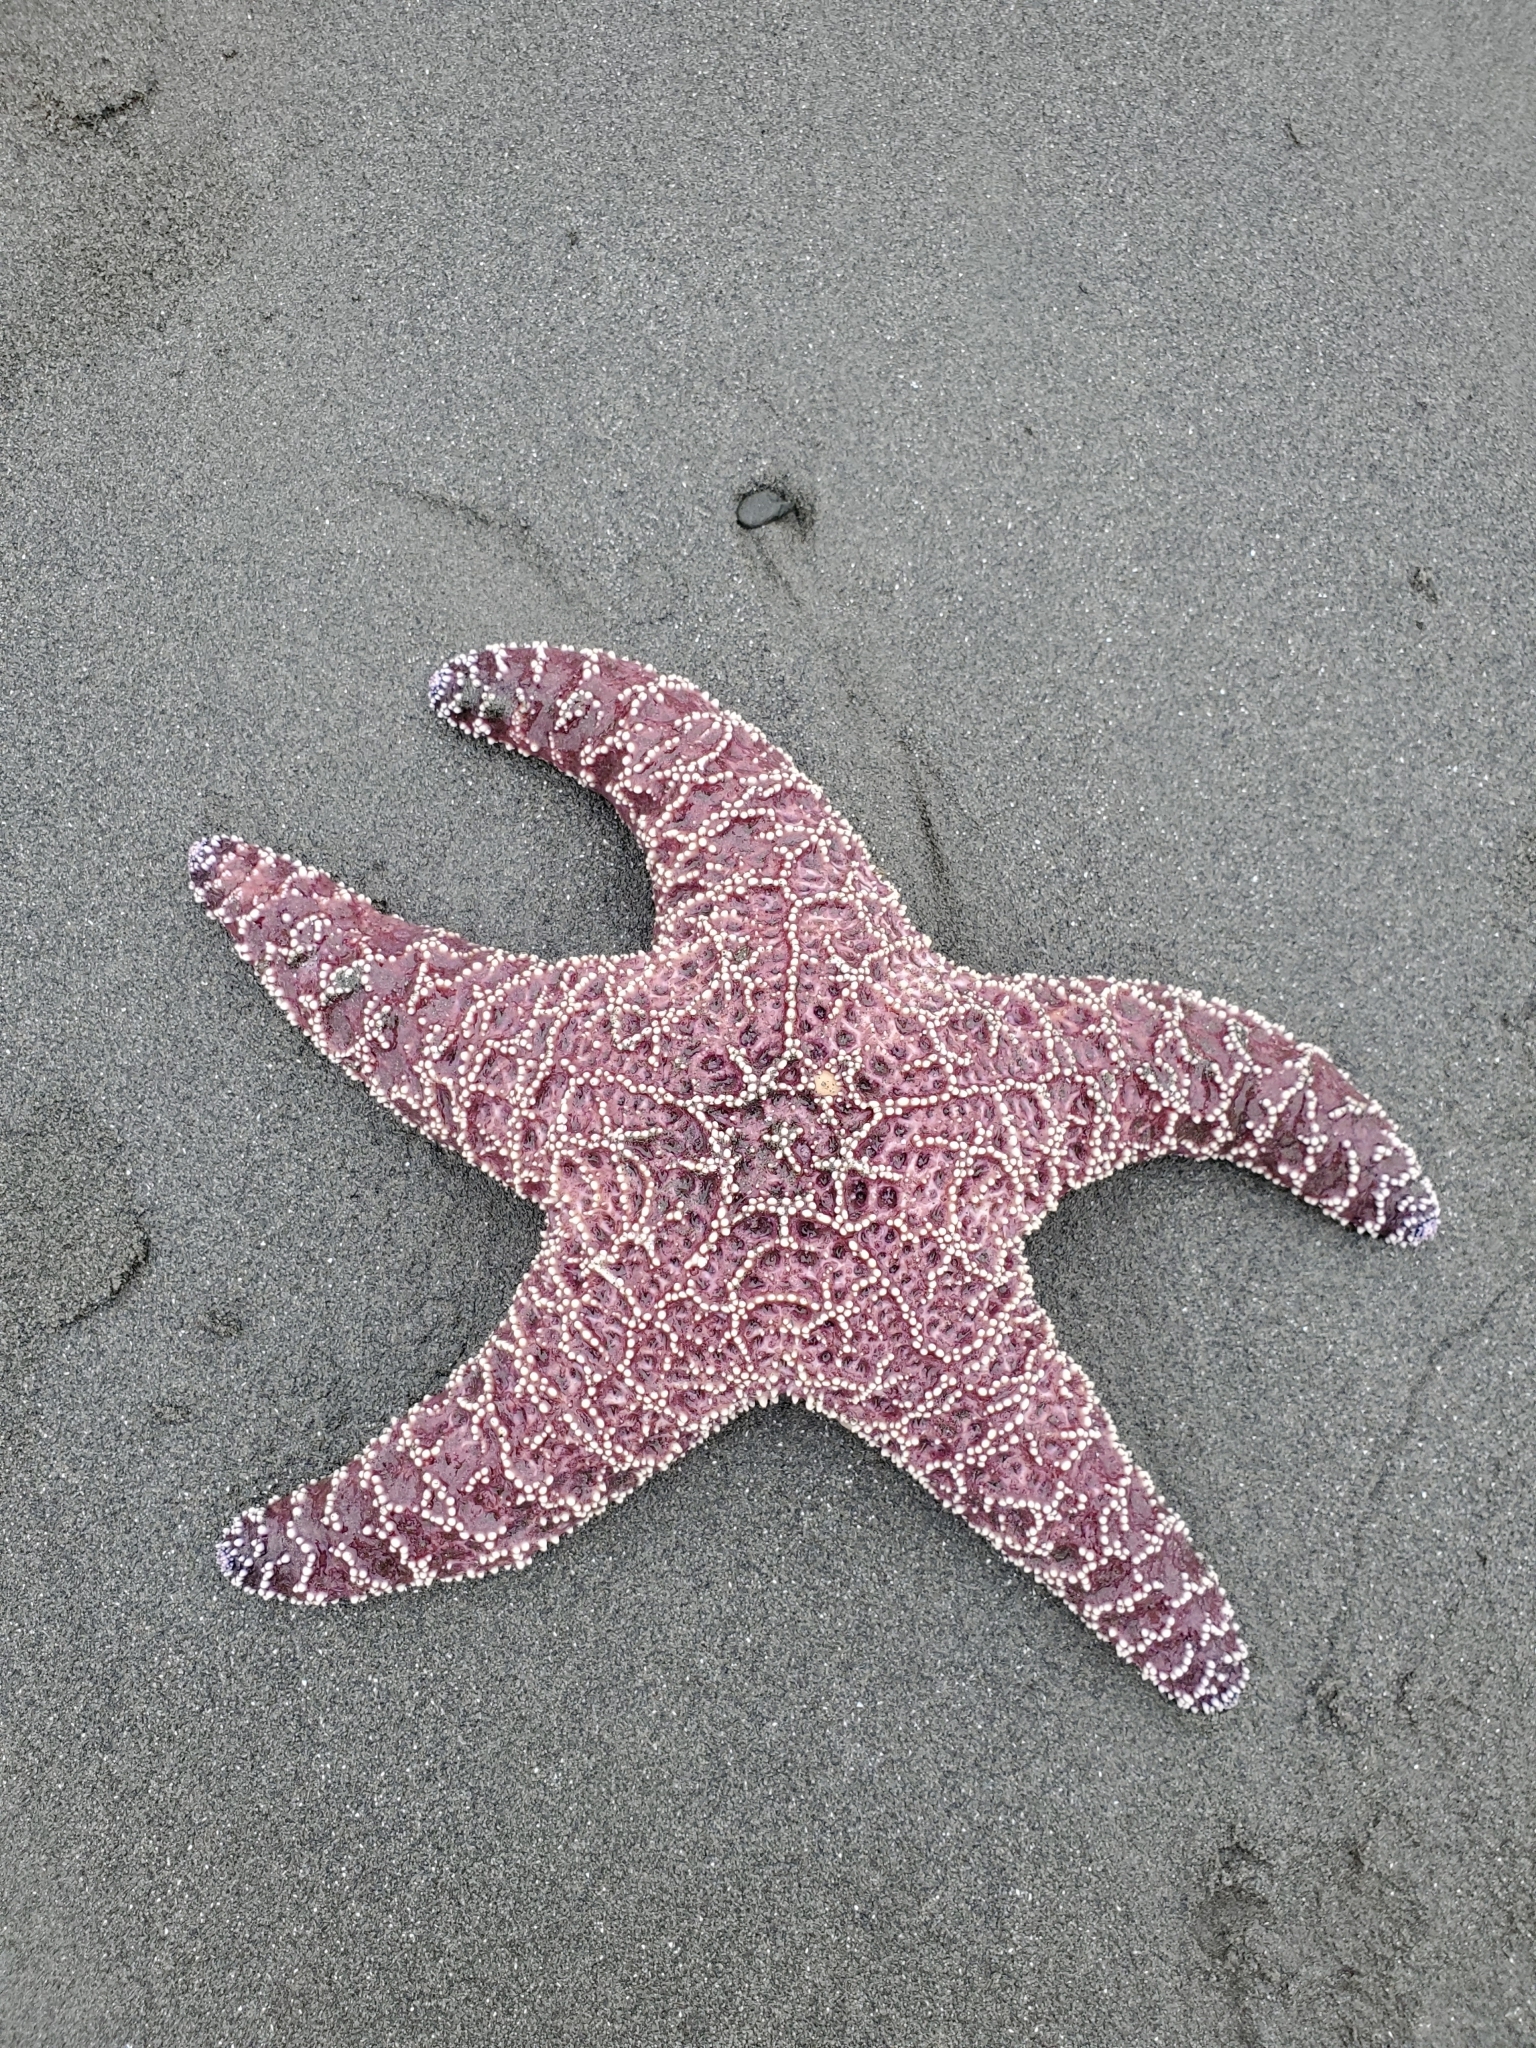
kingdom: Animalia
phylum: Echinodermata
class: Asteroidea
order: Forcipulatida
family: Asteriidae
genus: Pisaster
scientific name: Pisaster ochraceus
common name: Ochre stars
